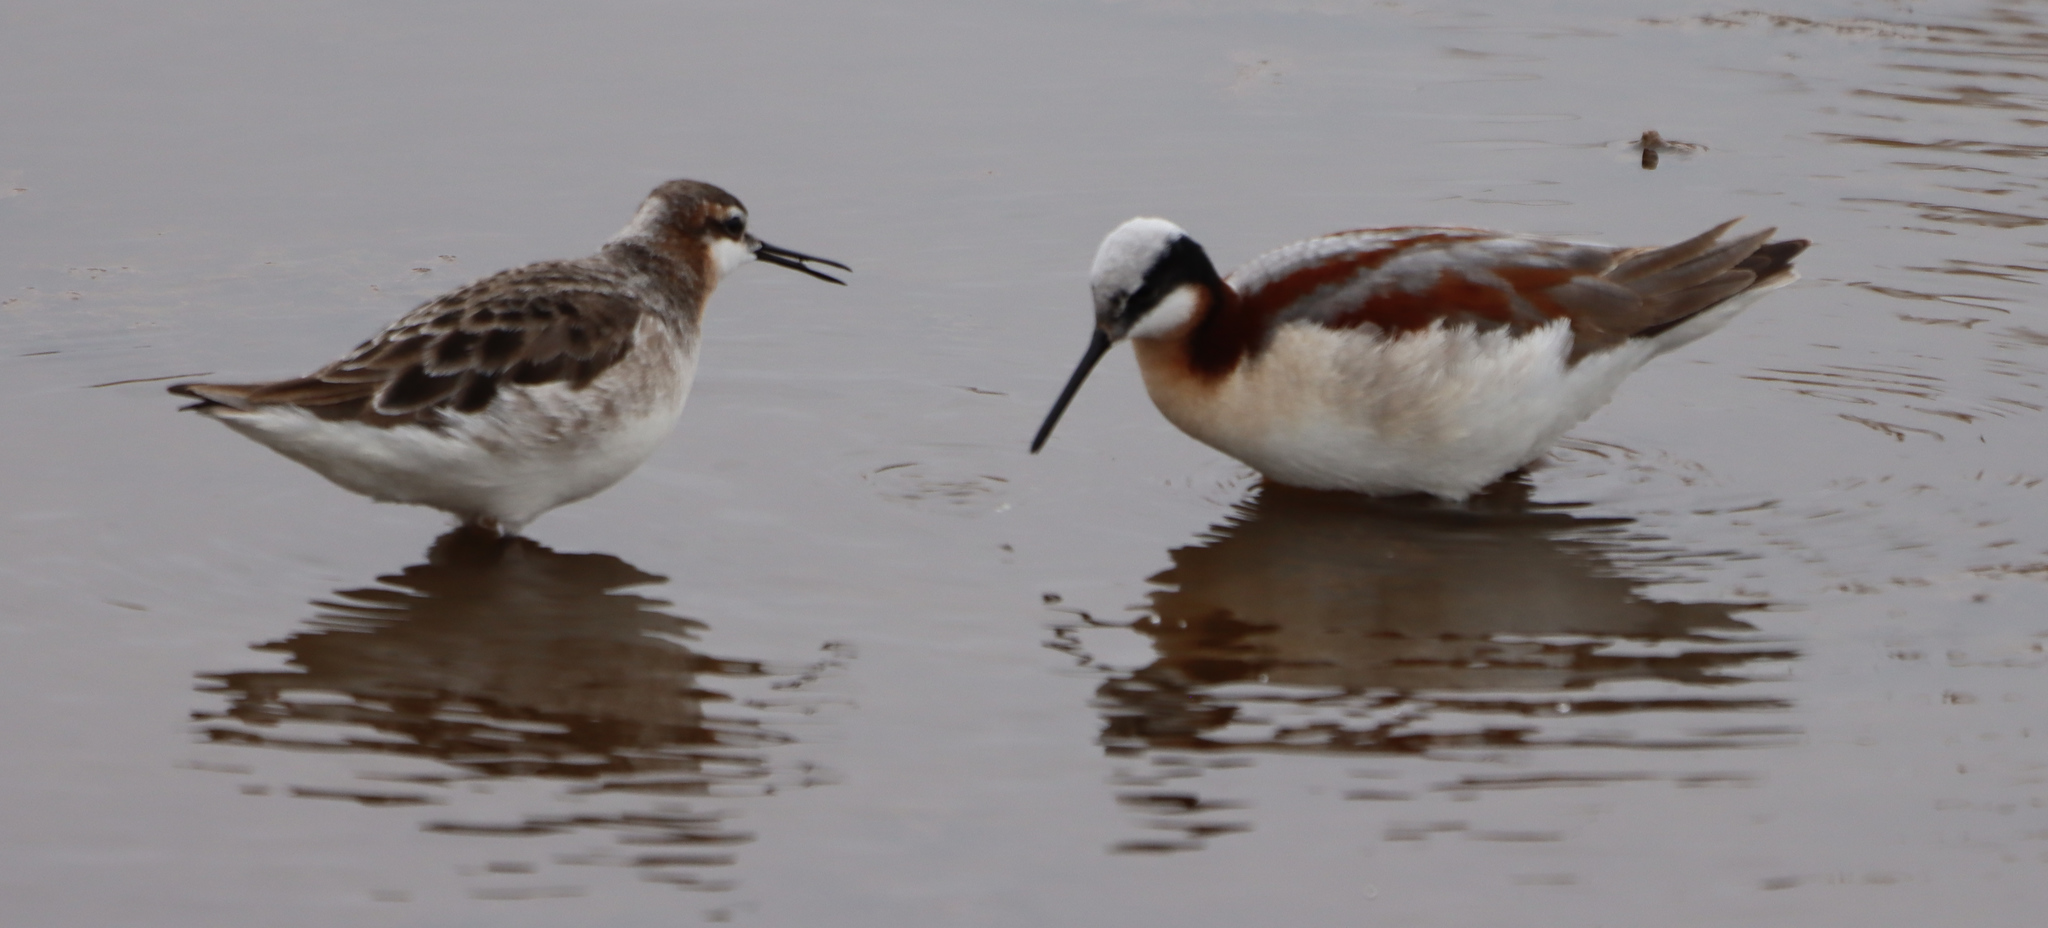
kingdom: Animalia
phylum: Chordata
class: Aves
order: Charadriiformes
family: Scolopacidae
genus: Phalaropus
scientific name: Phalaropus tricolor
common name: Wilson's phalarope
